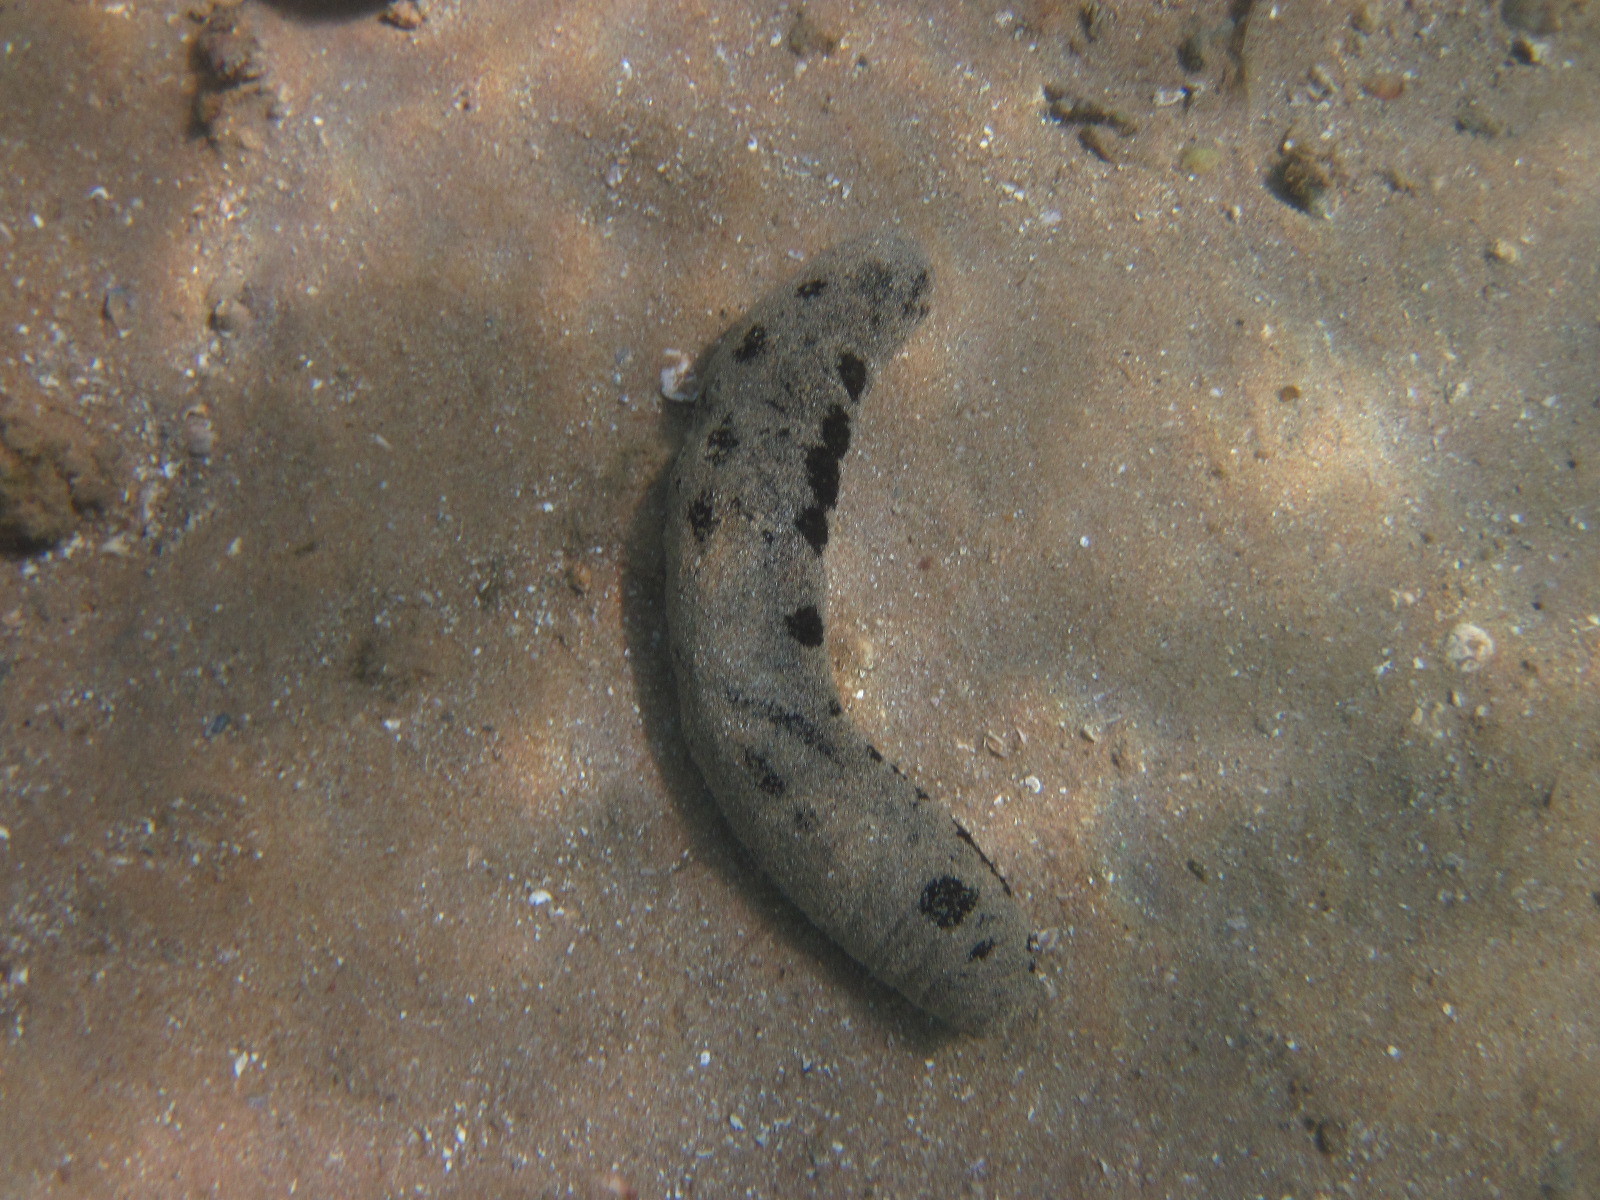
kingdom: Animalia
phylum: Echinodermata
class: Holothuroidea
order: Holothuriida
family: Holothuriidae
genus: Holothuria
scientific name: Holothuria atra
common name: Lollyfish
